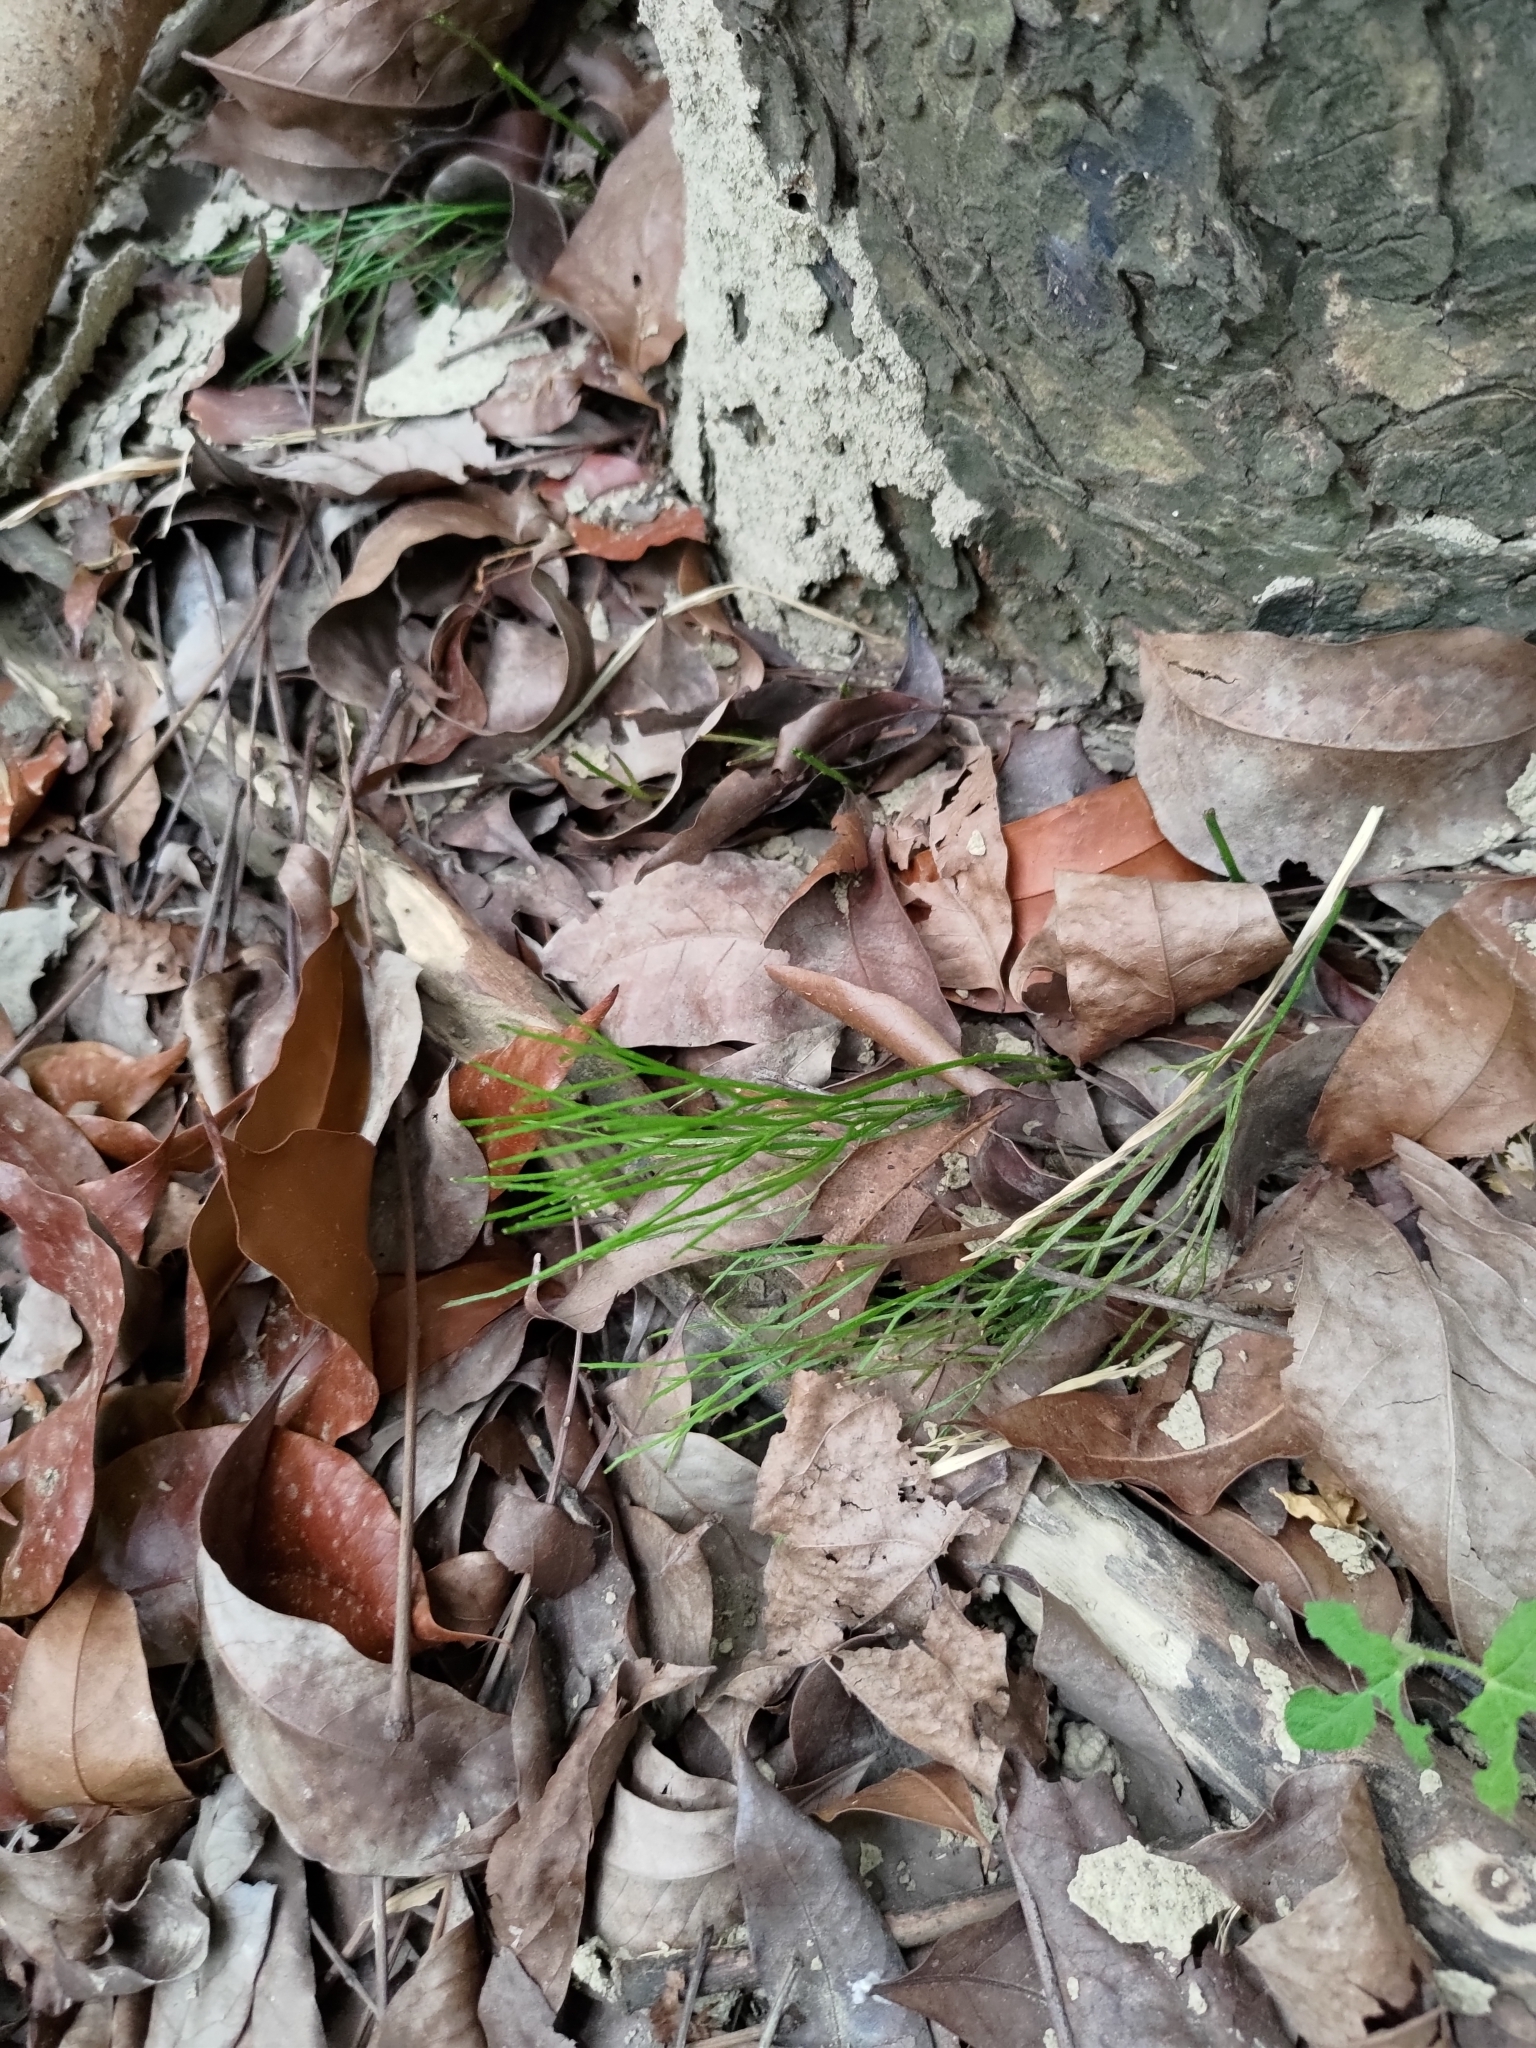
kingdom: Plantae
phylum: Tracheophyta
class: Polypodiopsida
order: Psilotales
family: Psilotaceae
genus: Psilotum
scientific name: Psilotum nudum
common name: Skeleton fork fern
